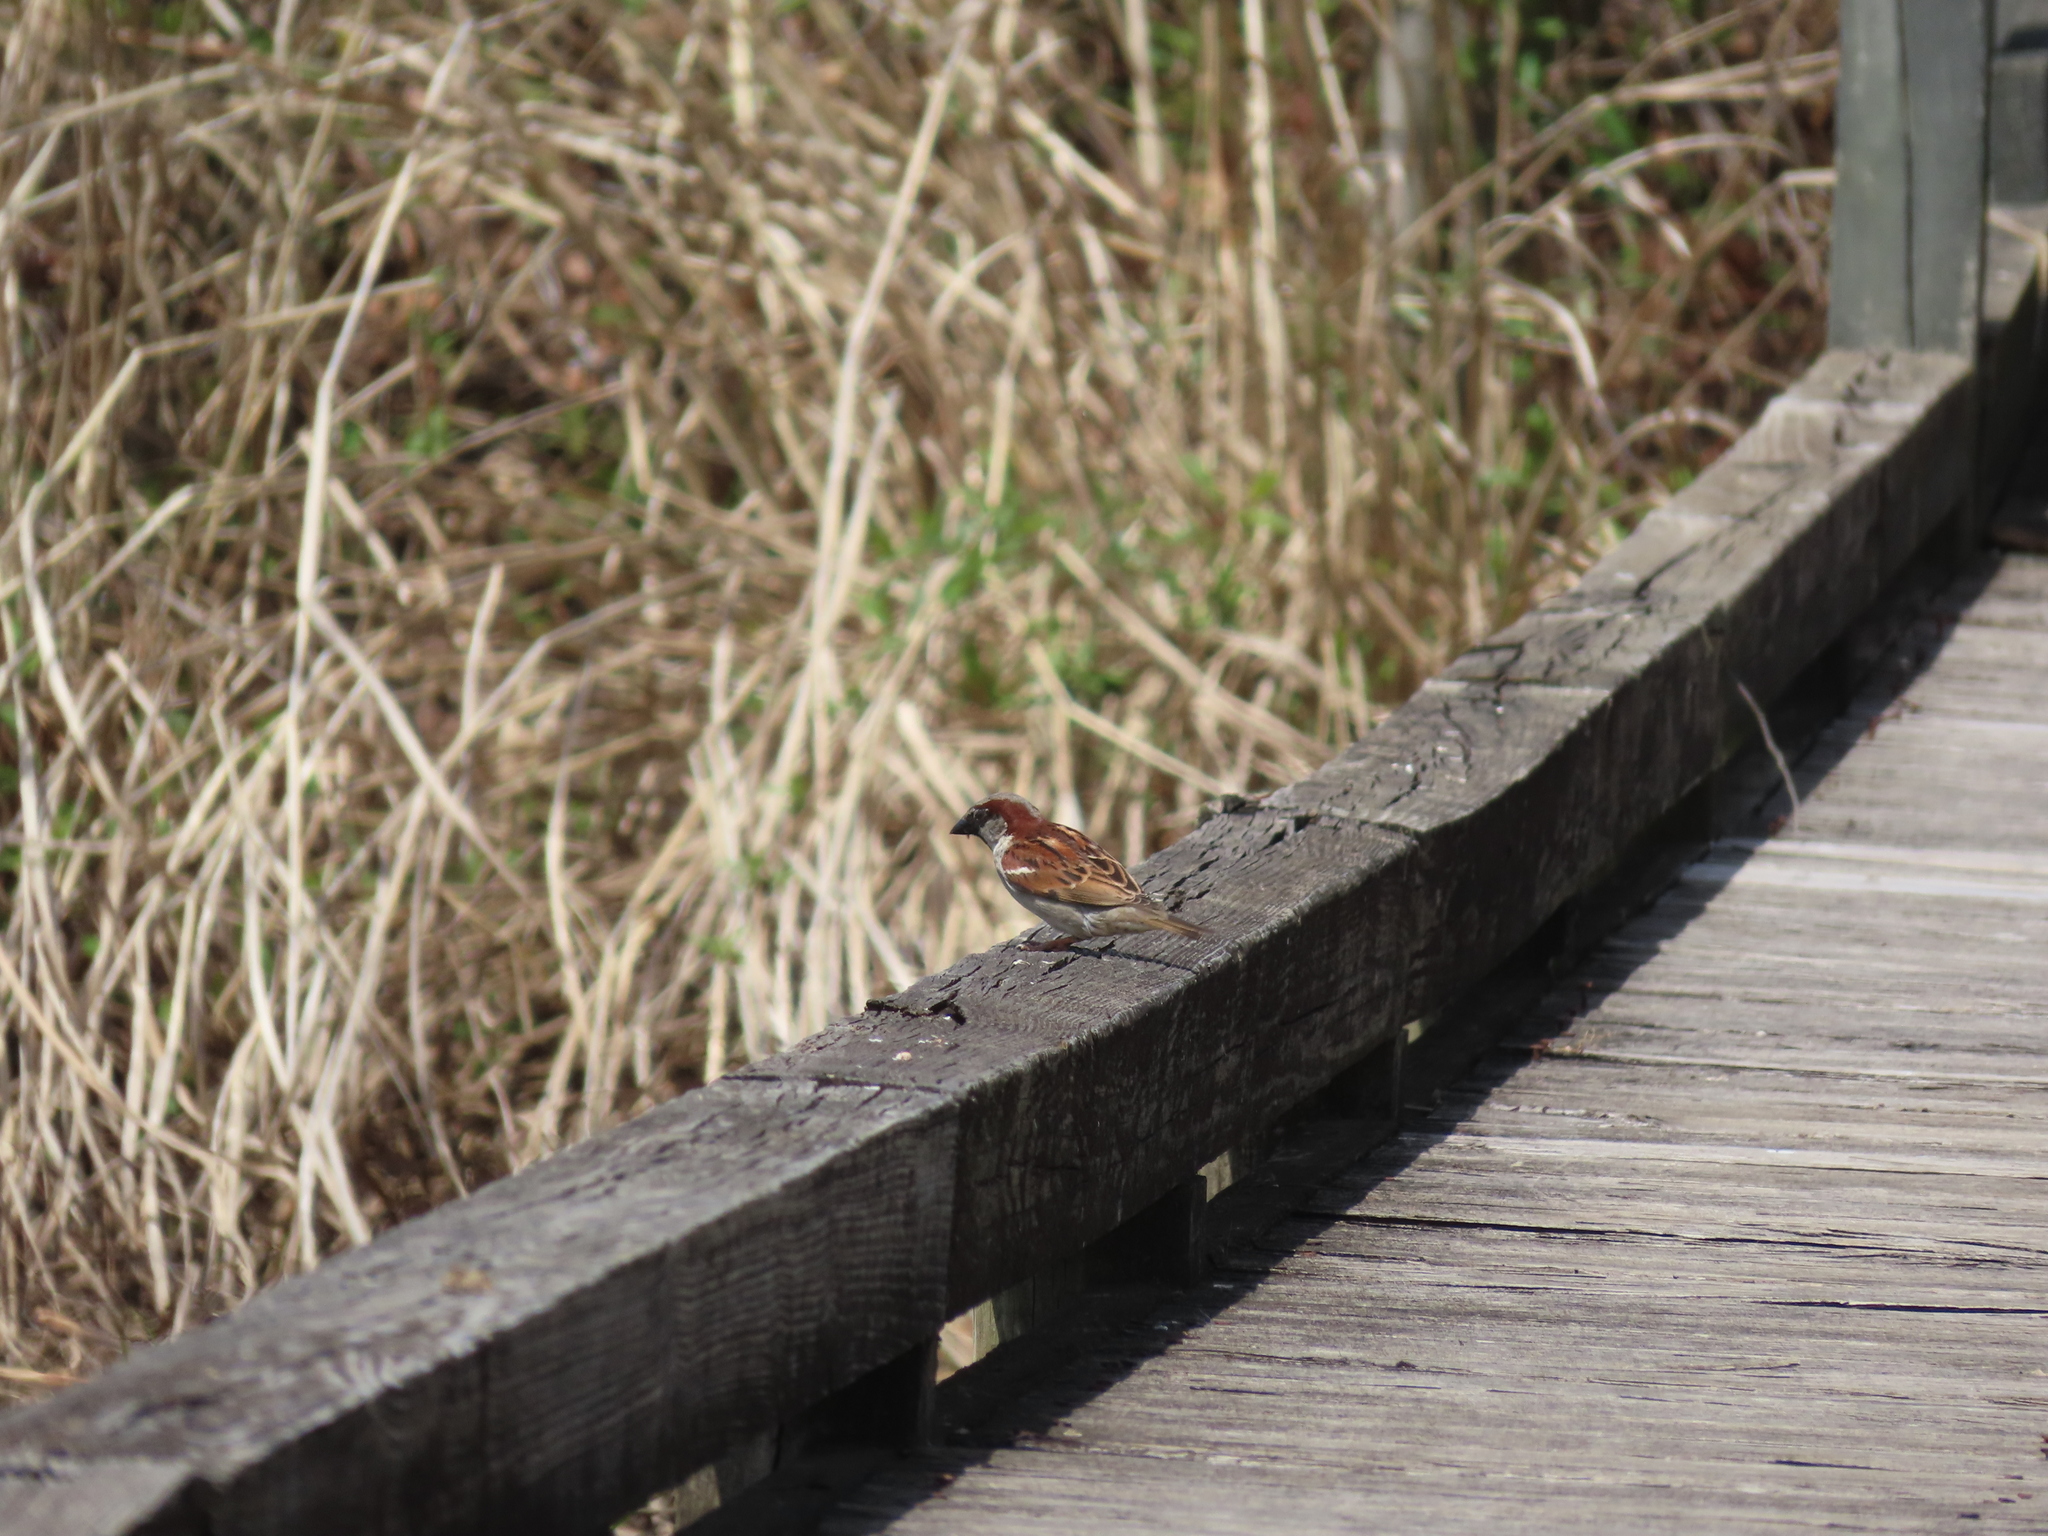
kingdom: Animalia
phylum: Chordata
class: Aves
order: Passeriformes
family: Passeridae
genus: Passer
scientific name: Passer domesticus
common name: House sparrow
